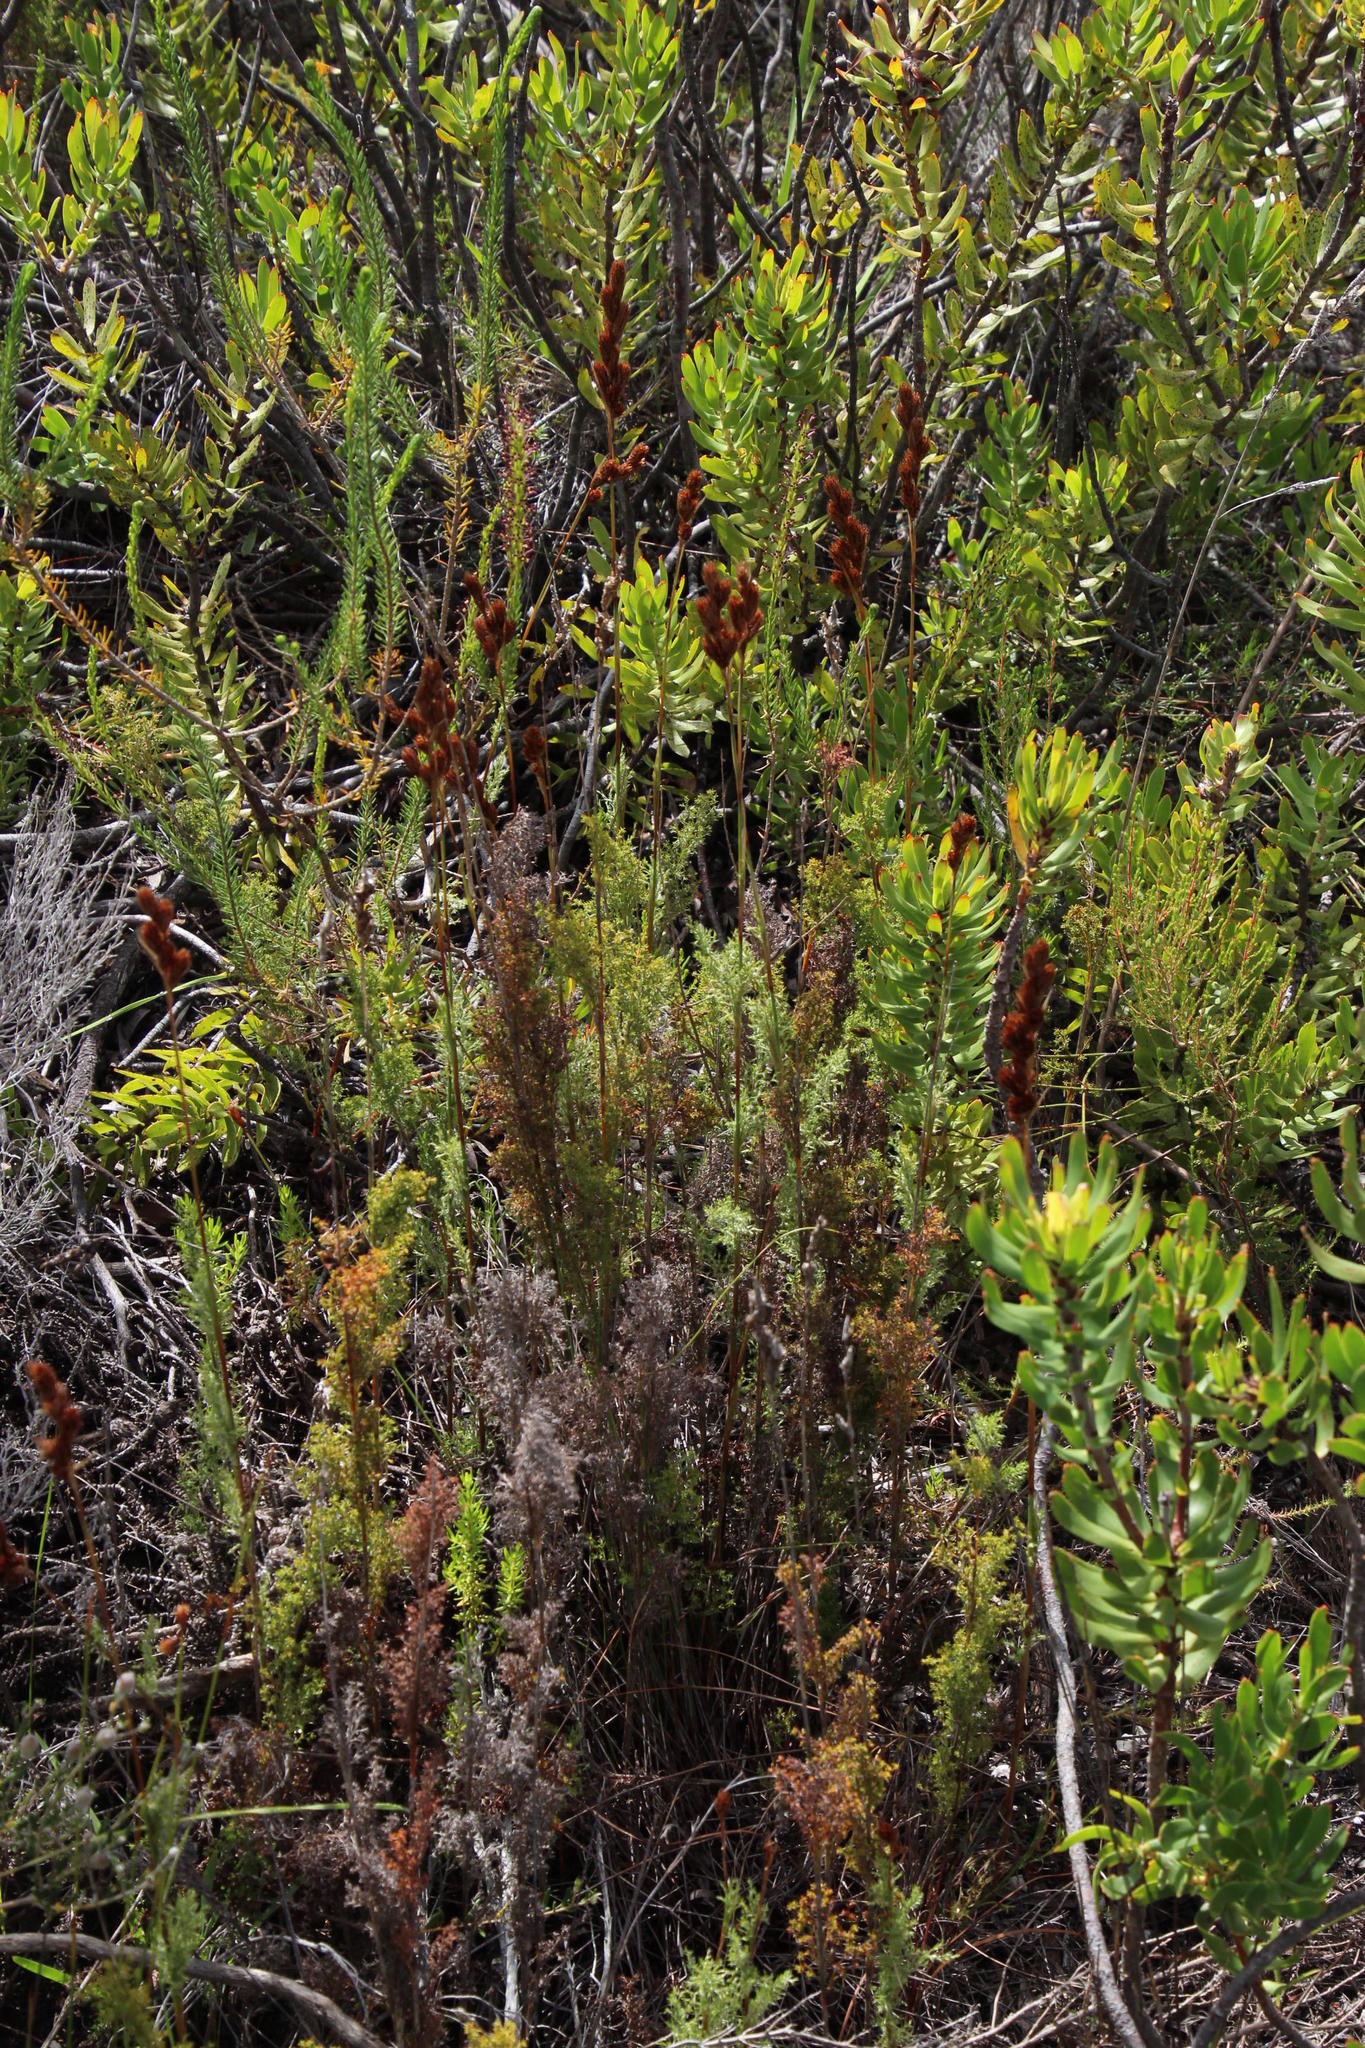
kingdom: Plantae
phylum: Tracheophyta
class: Magnoliopsida
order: Proteales
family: Proteaceae
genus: Mimetes
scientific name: Mimetes cucullatus
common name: Common pagoda
